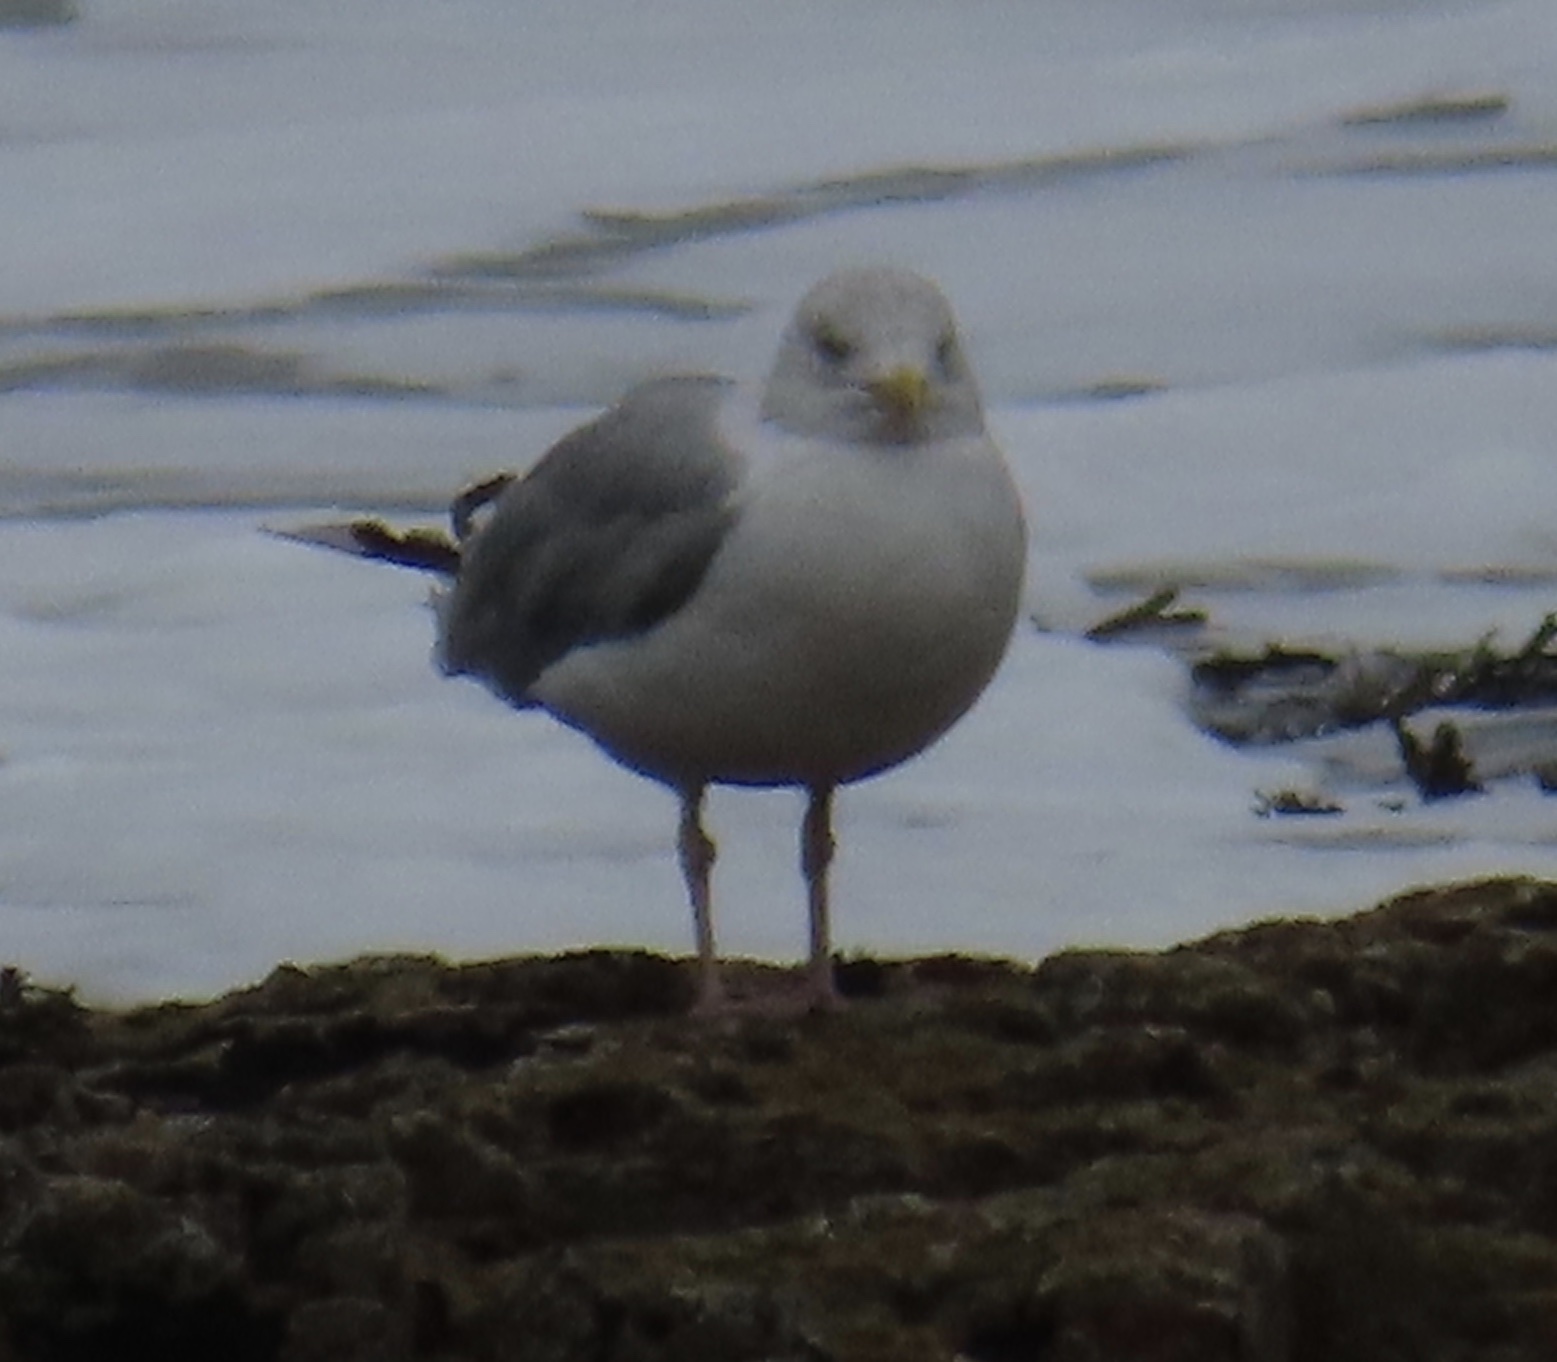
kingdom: Animalia
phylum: Chordata
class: Aves
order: Charadriiformes
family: Laridae
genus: Larus
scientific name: Larus argentatus
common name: Herring gull
